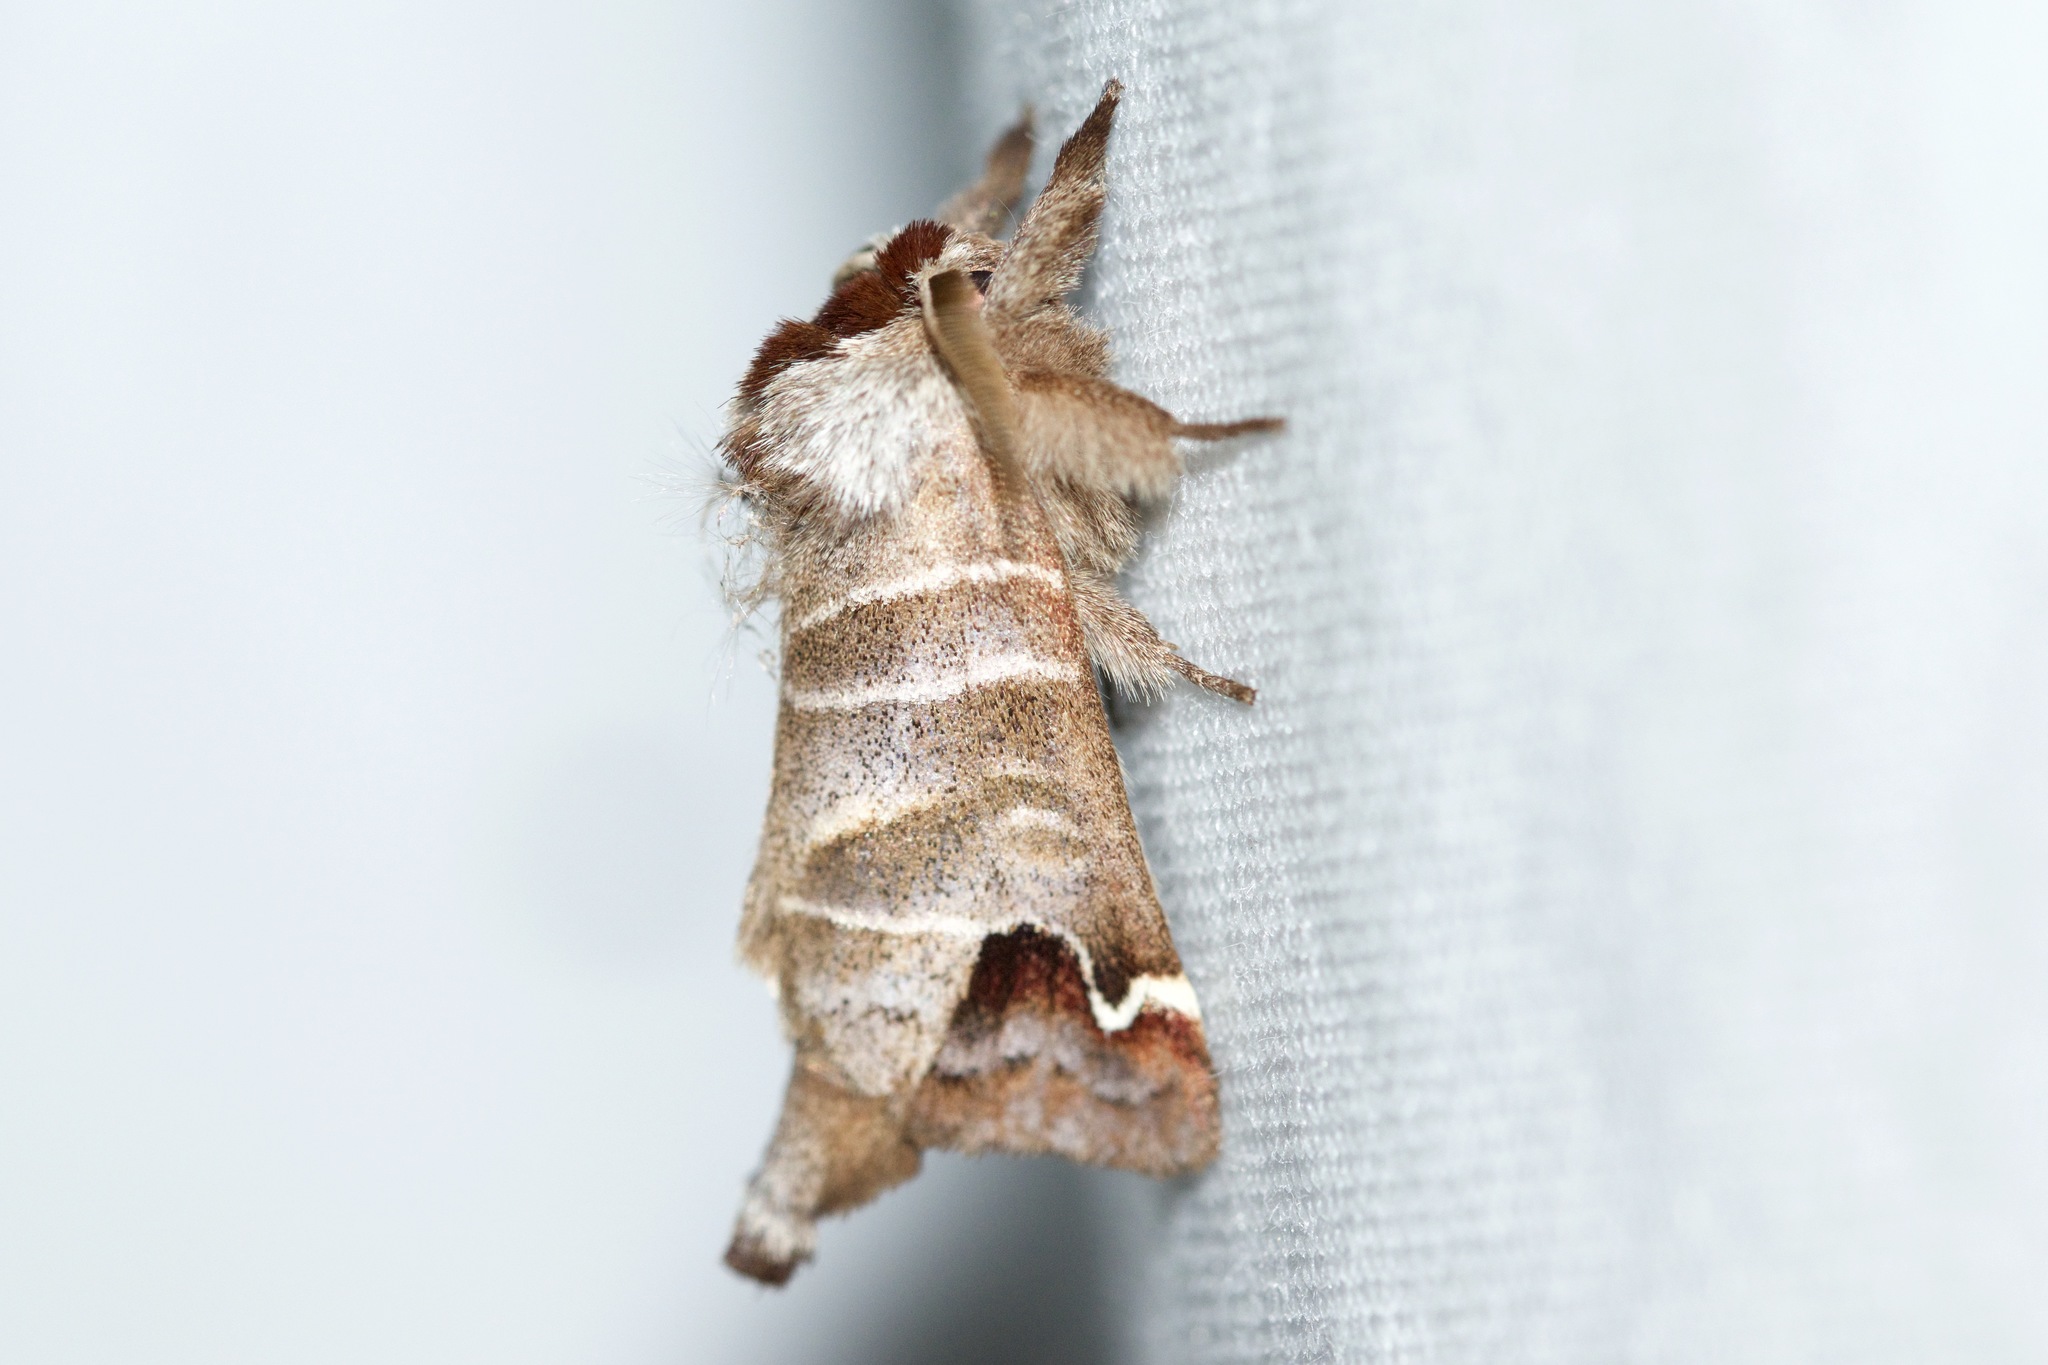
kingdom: Animalia
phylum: Arthropoda
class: Insecta
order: Lepidoptera
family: Notodontidae
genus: Clostera
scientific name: Clostera albosigma
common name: Sigmoid prominent
